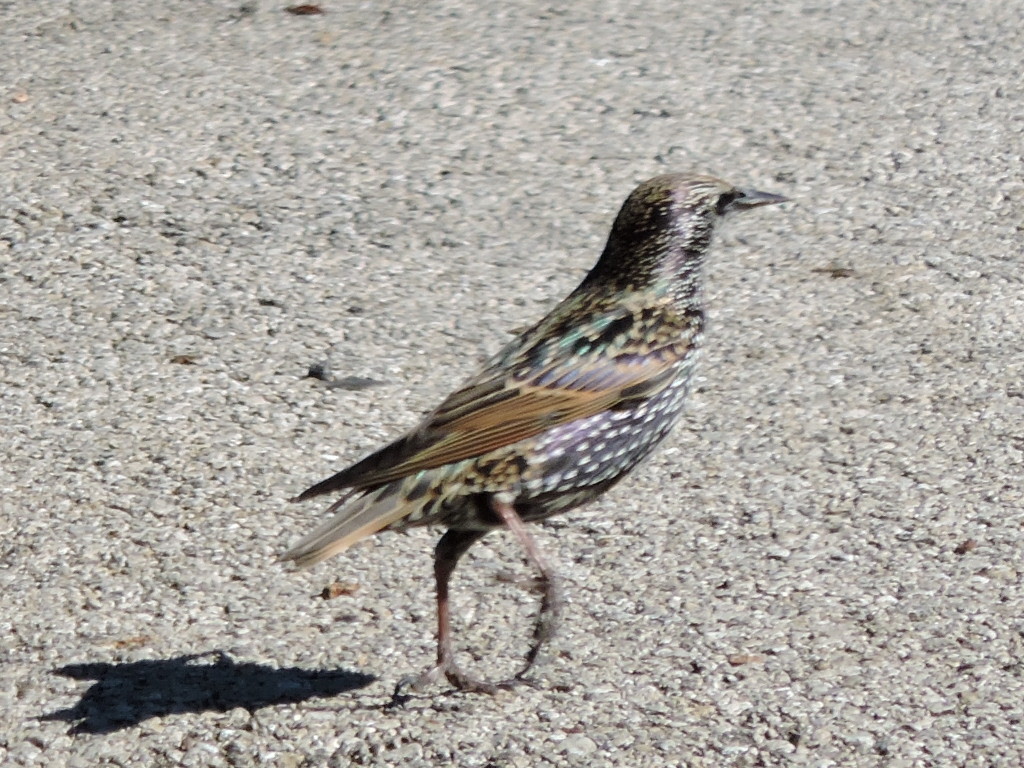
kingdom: Animalia
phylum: Chordata
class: Aves
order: Passeriformes
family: Sturnidae
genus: Sturnus
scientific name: Sturnus vulgaris
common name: Common starling
